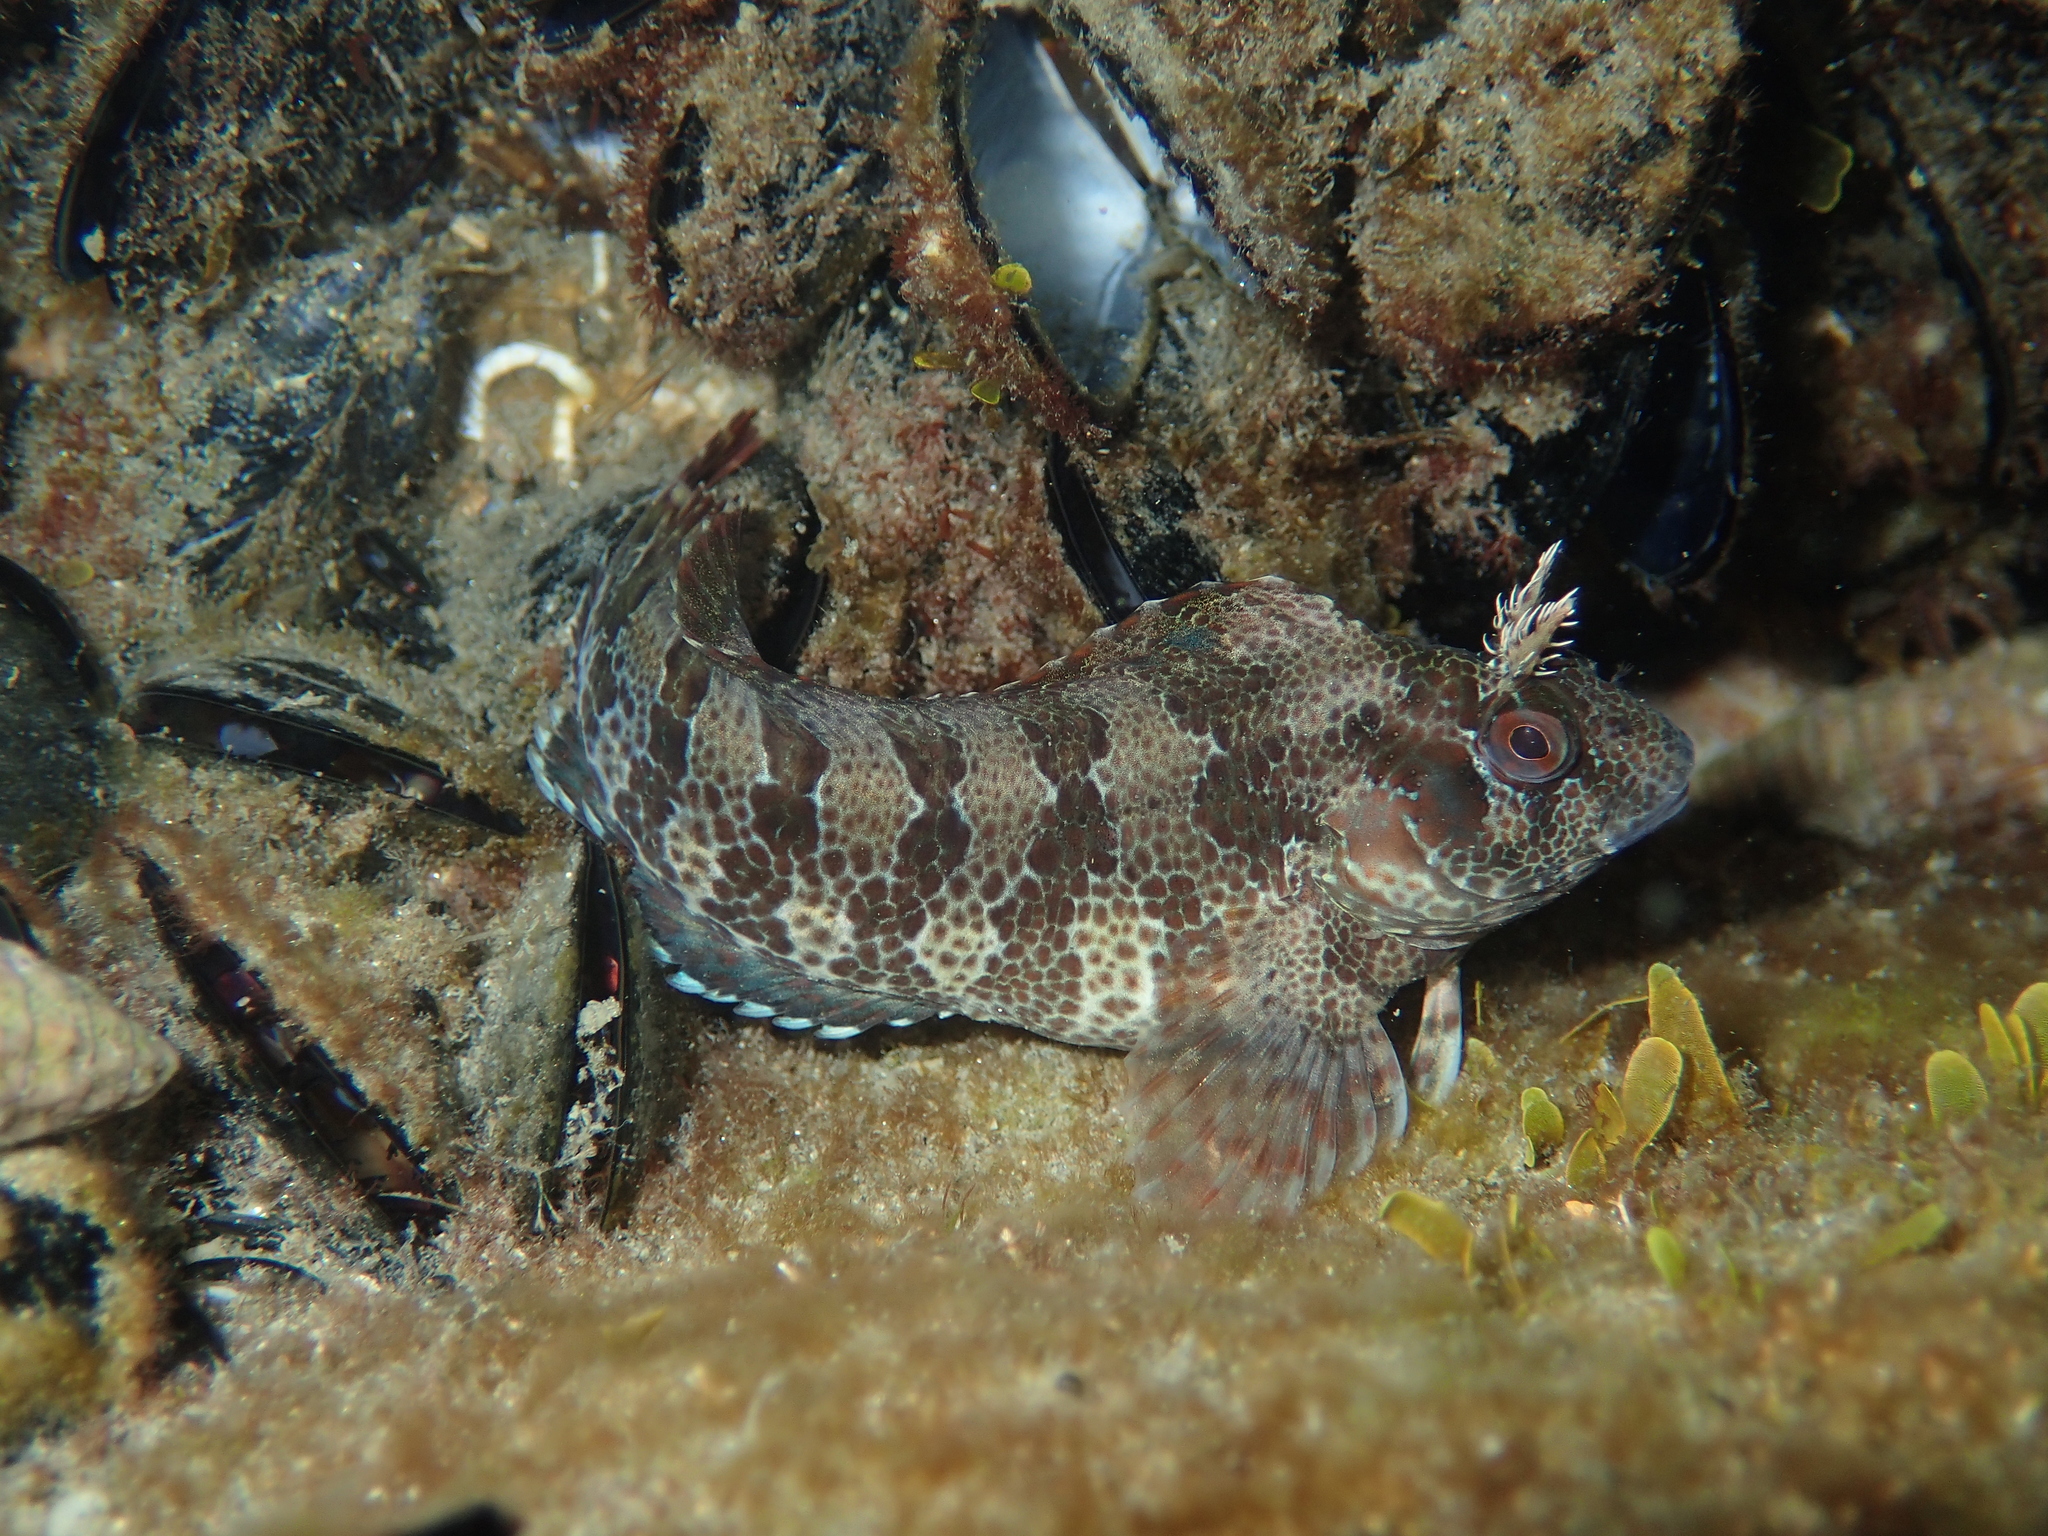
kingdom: Animalia
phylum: Chordata
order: Perciformes
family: Blenniidae
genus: Parablennius
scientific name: Parablennius gattorugine
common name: Tompot blenny
